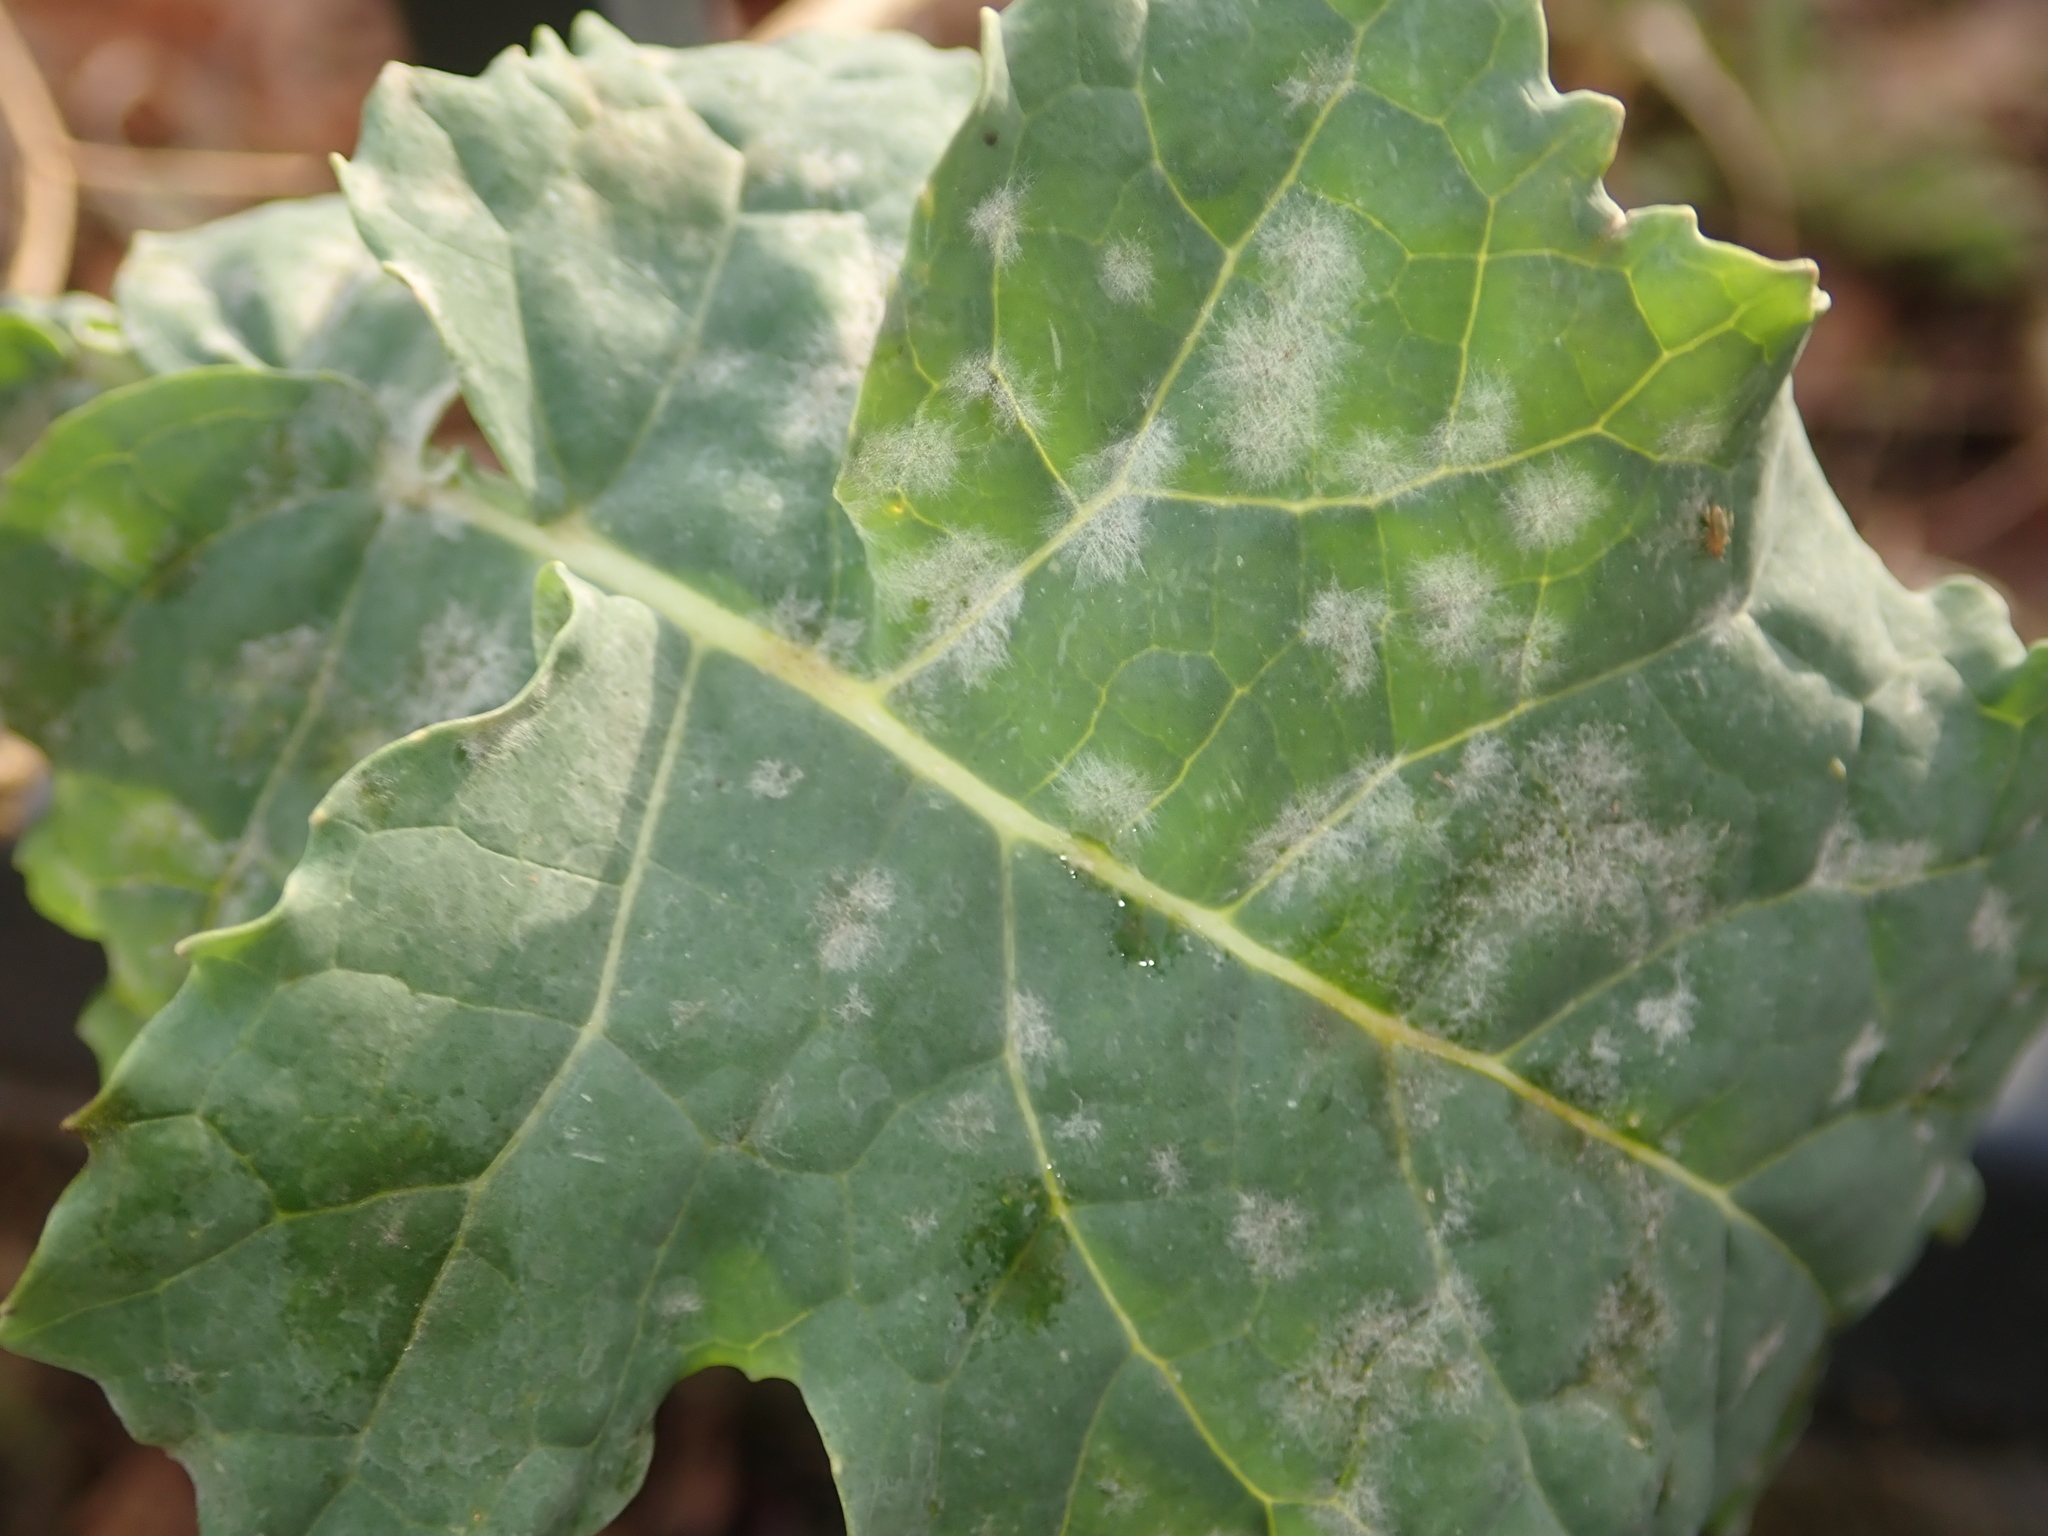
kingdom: Fungi
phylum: Ascomycota
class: Leotiomycetes
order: Helotiales
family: Erysiphaceae
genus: Erysiphe
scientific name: Erysiphe cruciferarum
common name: Brassica powdery mildew
